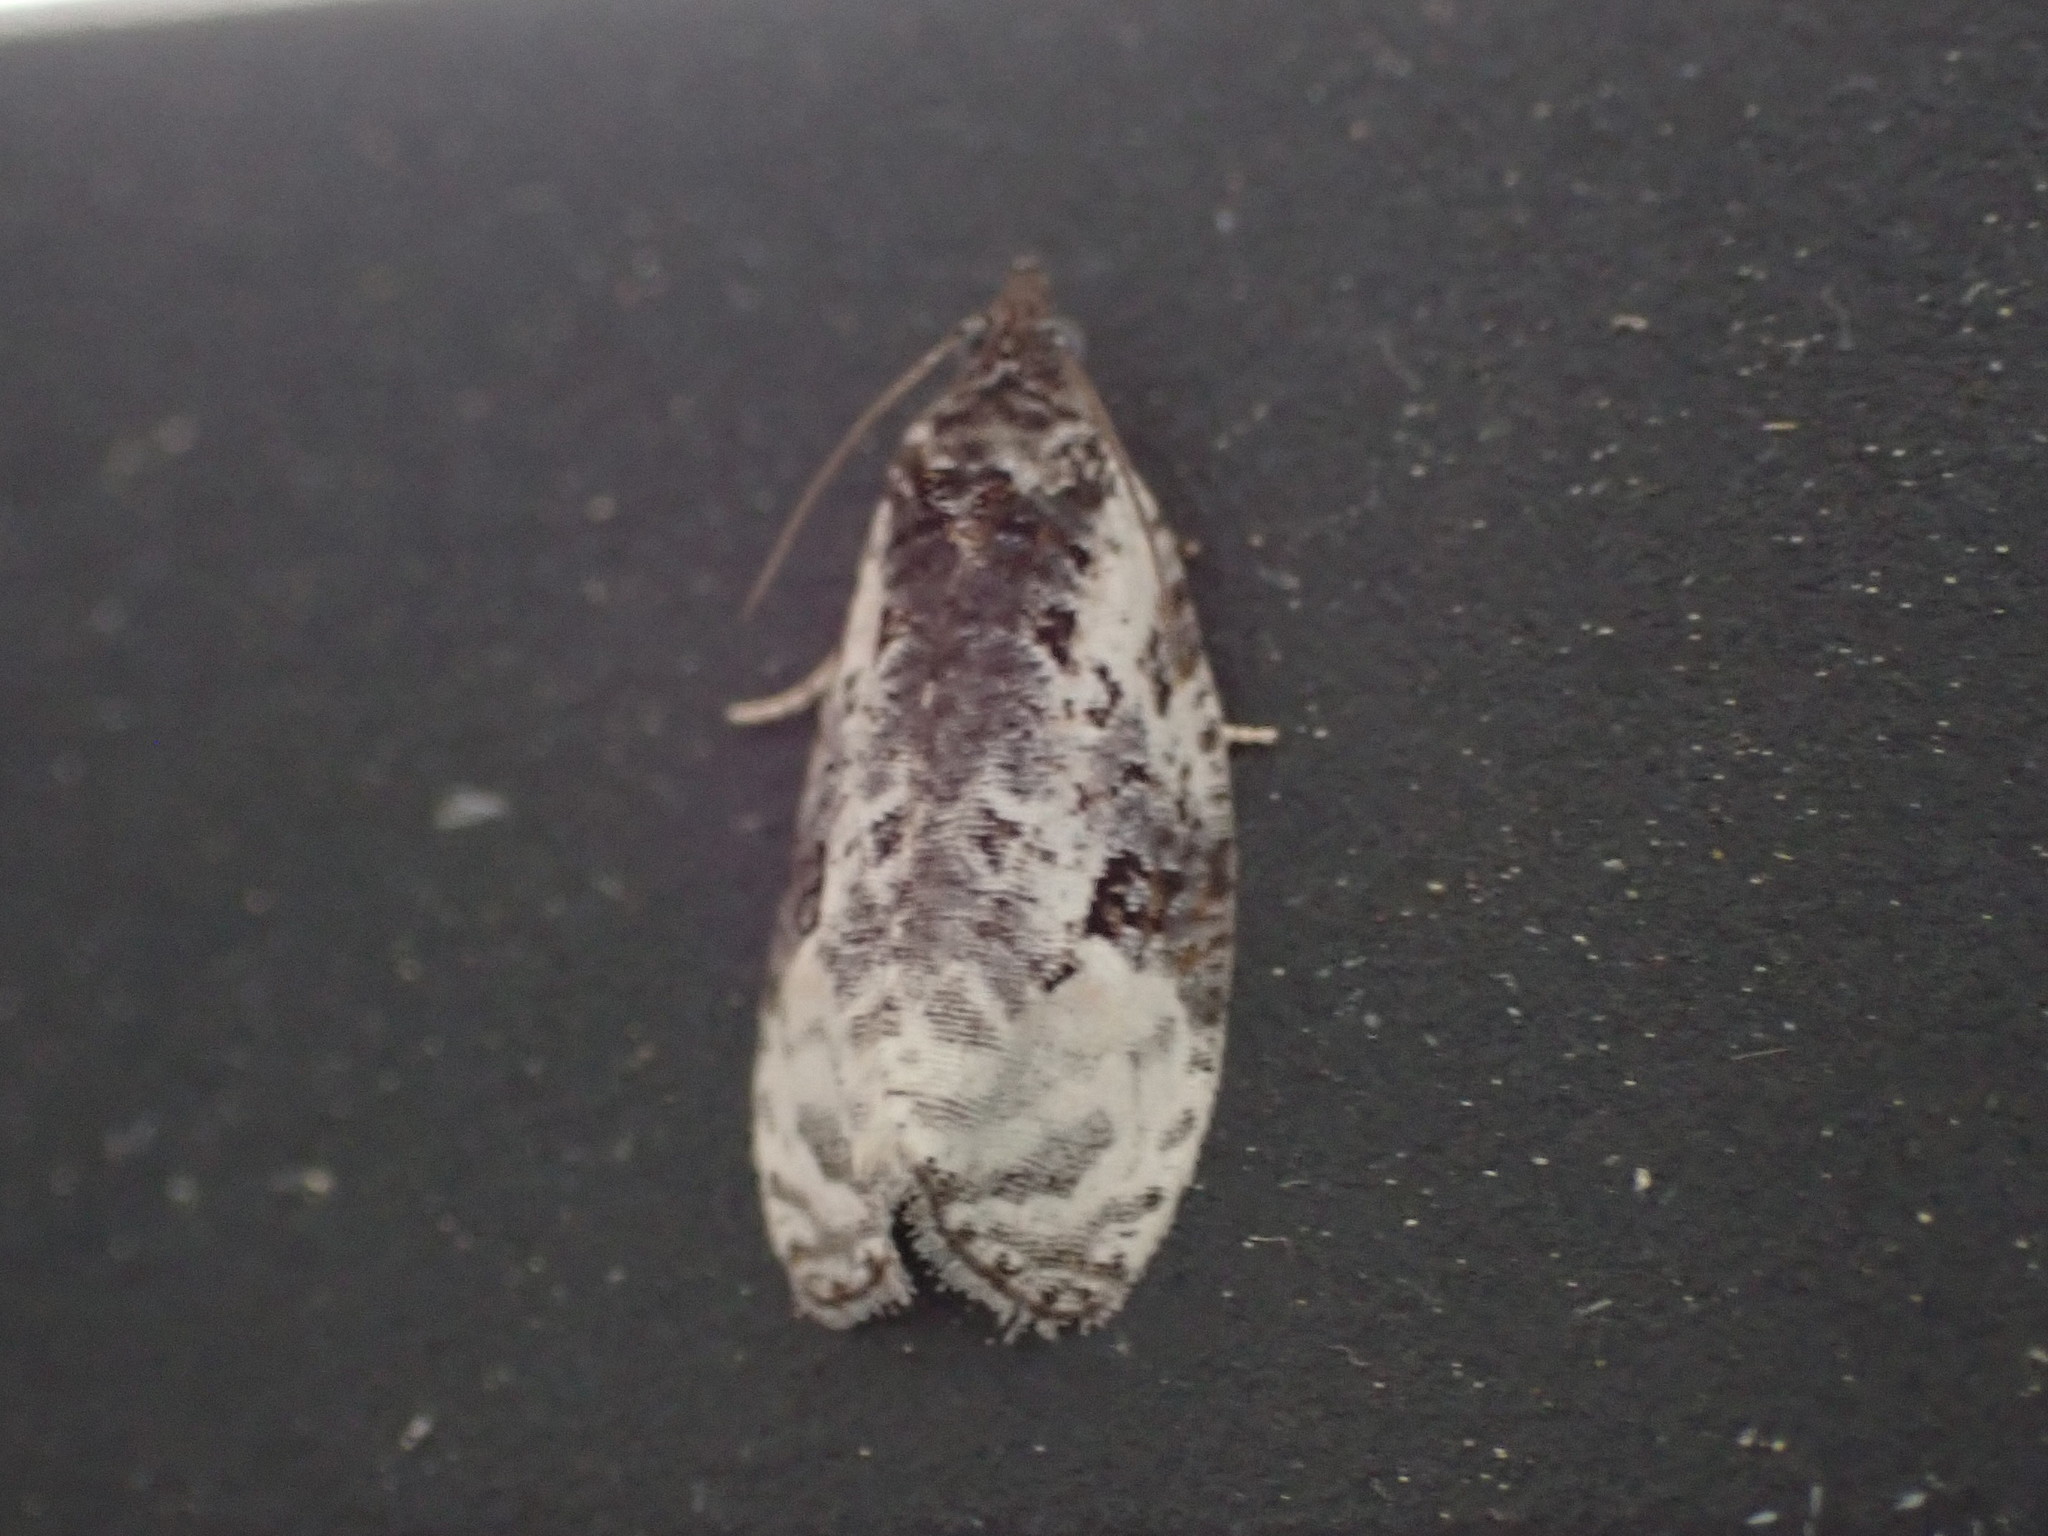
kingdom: Animalia
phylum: Arthropoda
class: Insecta
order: Lepidoptera
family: Tortricidae
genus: Apotomis
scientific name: Apotomis albeolana
